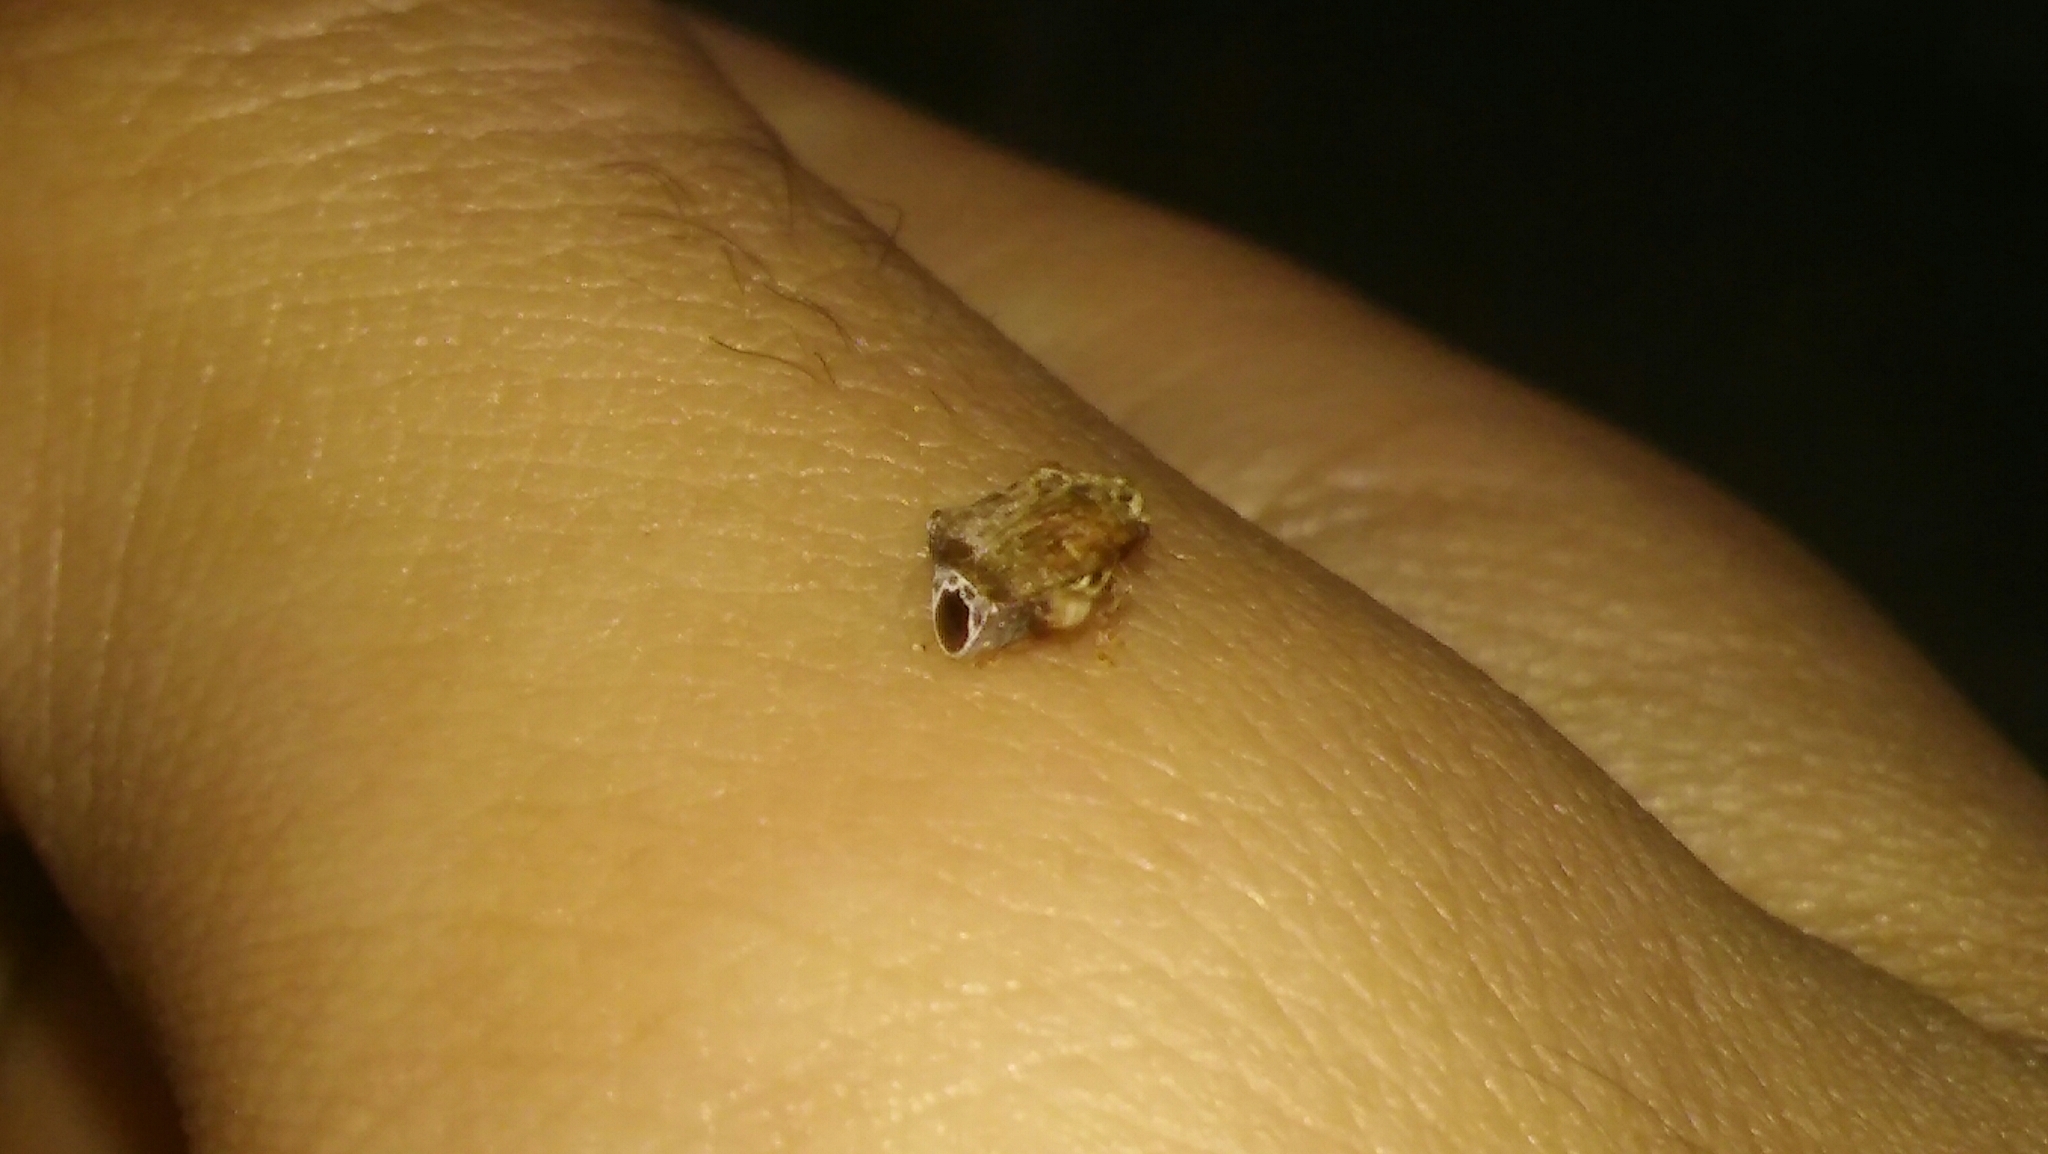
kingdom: Animalia
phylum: Arthropoda
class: Insecta
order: Coleoptera
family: Chrysomelidae
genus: Gibbobruchus
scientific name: Gibbobruchus
